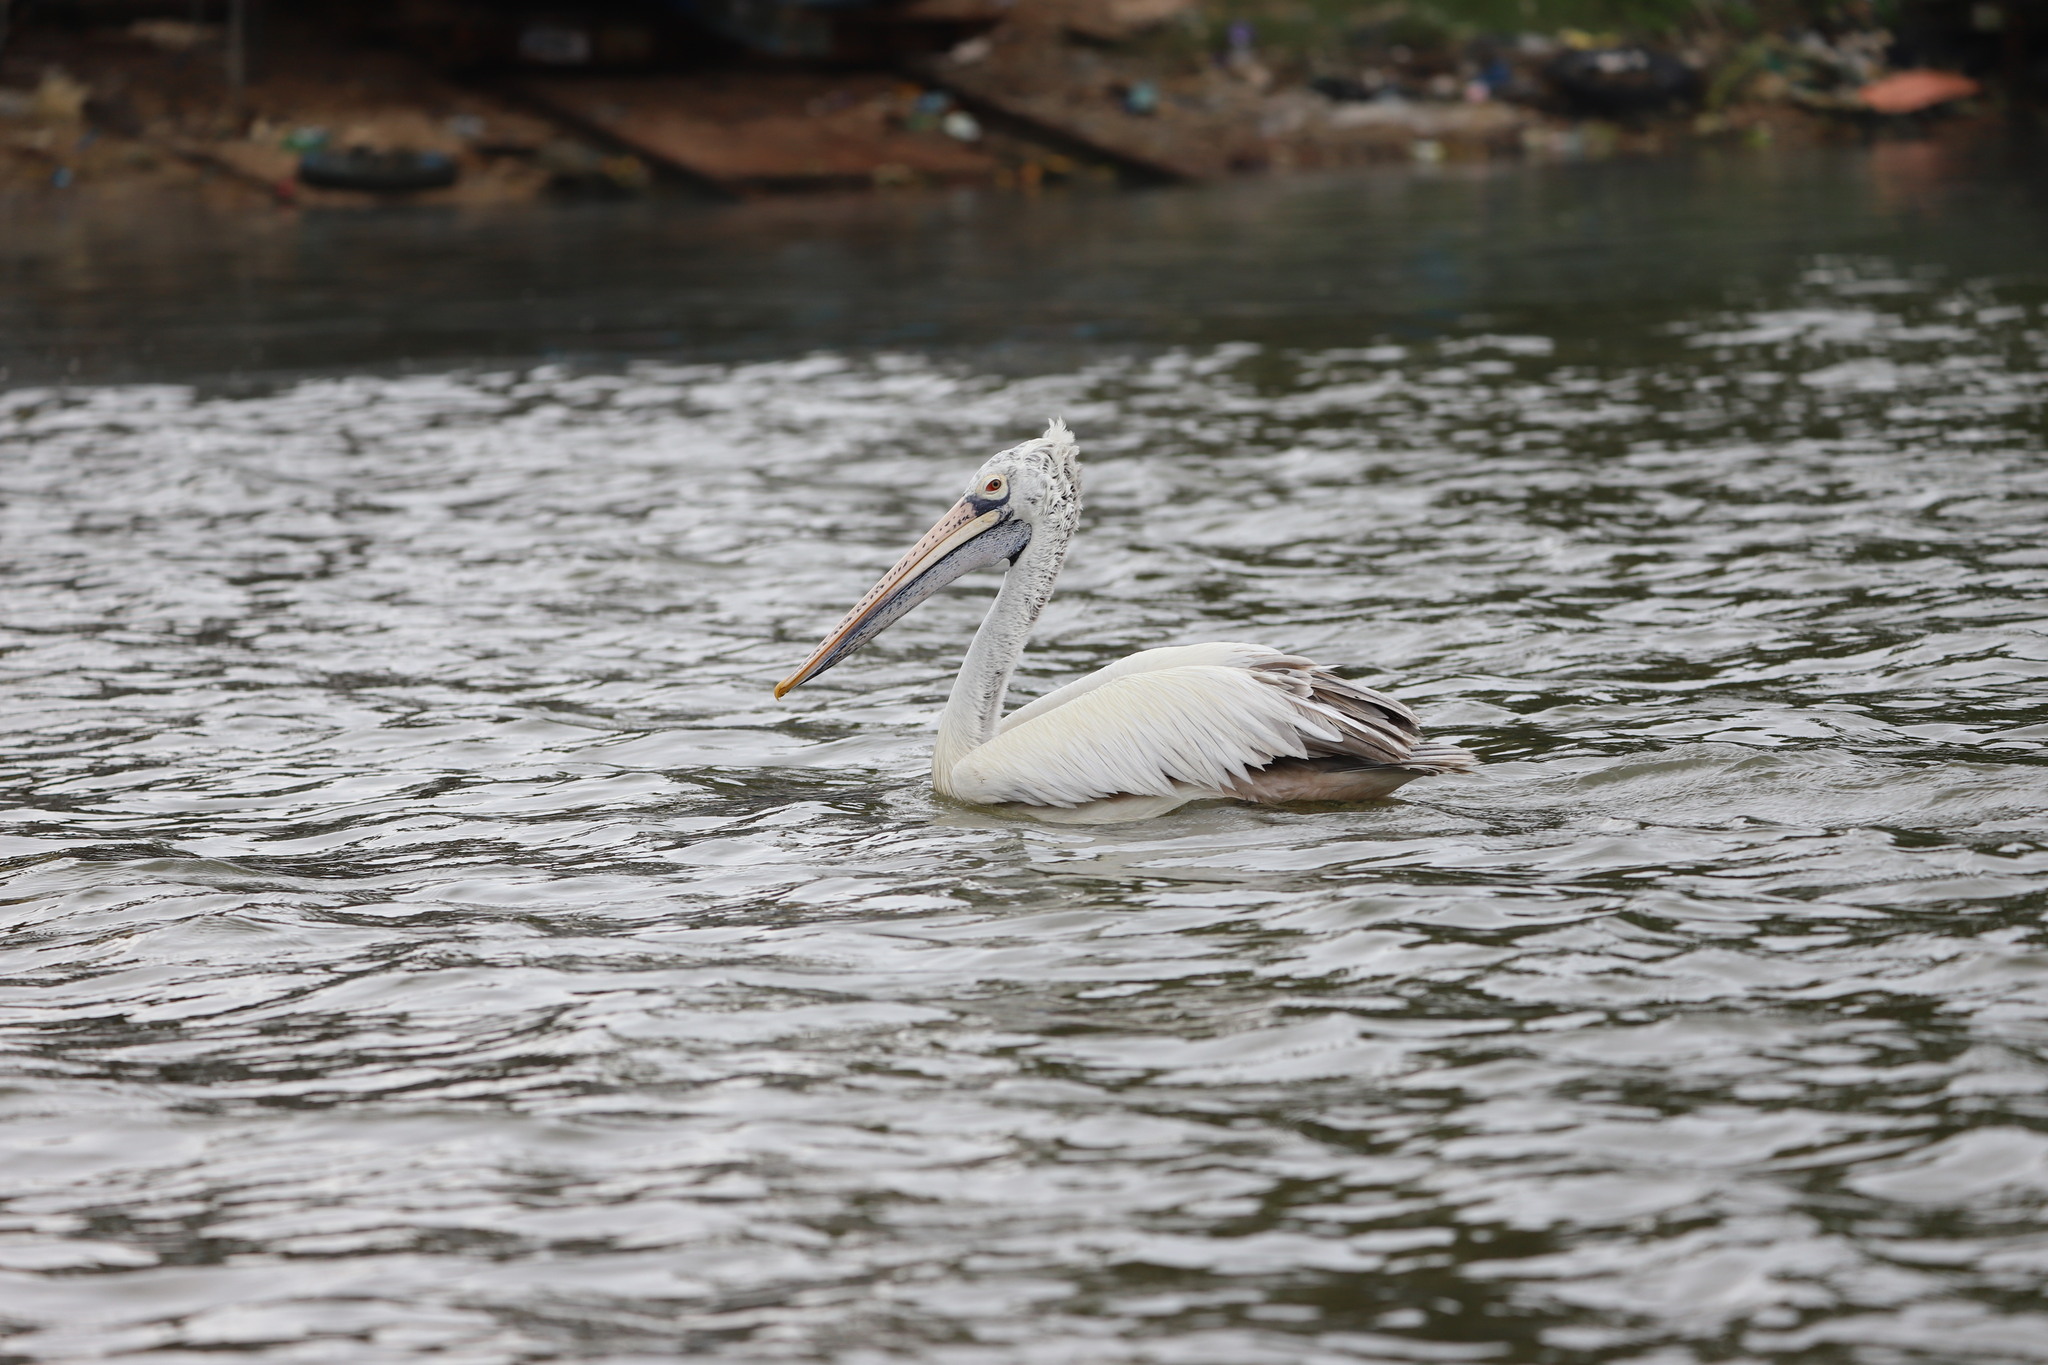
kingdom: Animalia
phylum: Chordata
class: Aves
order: Pelecaniformes
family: Pelecanidae
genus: Pelecanus
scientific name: Pelecanus philippensis
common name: Spot-billed pelican
